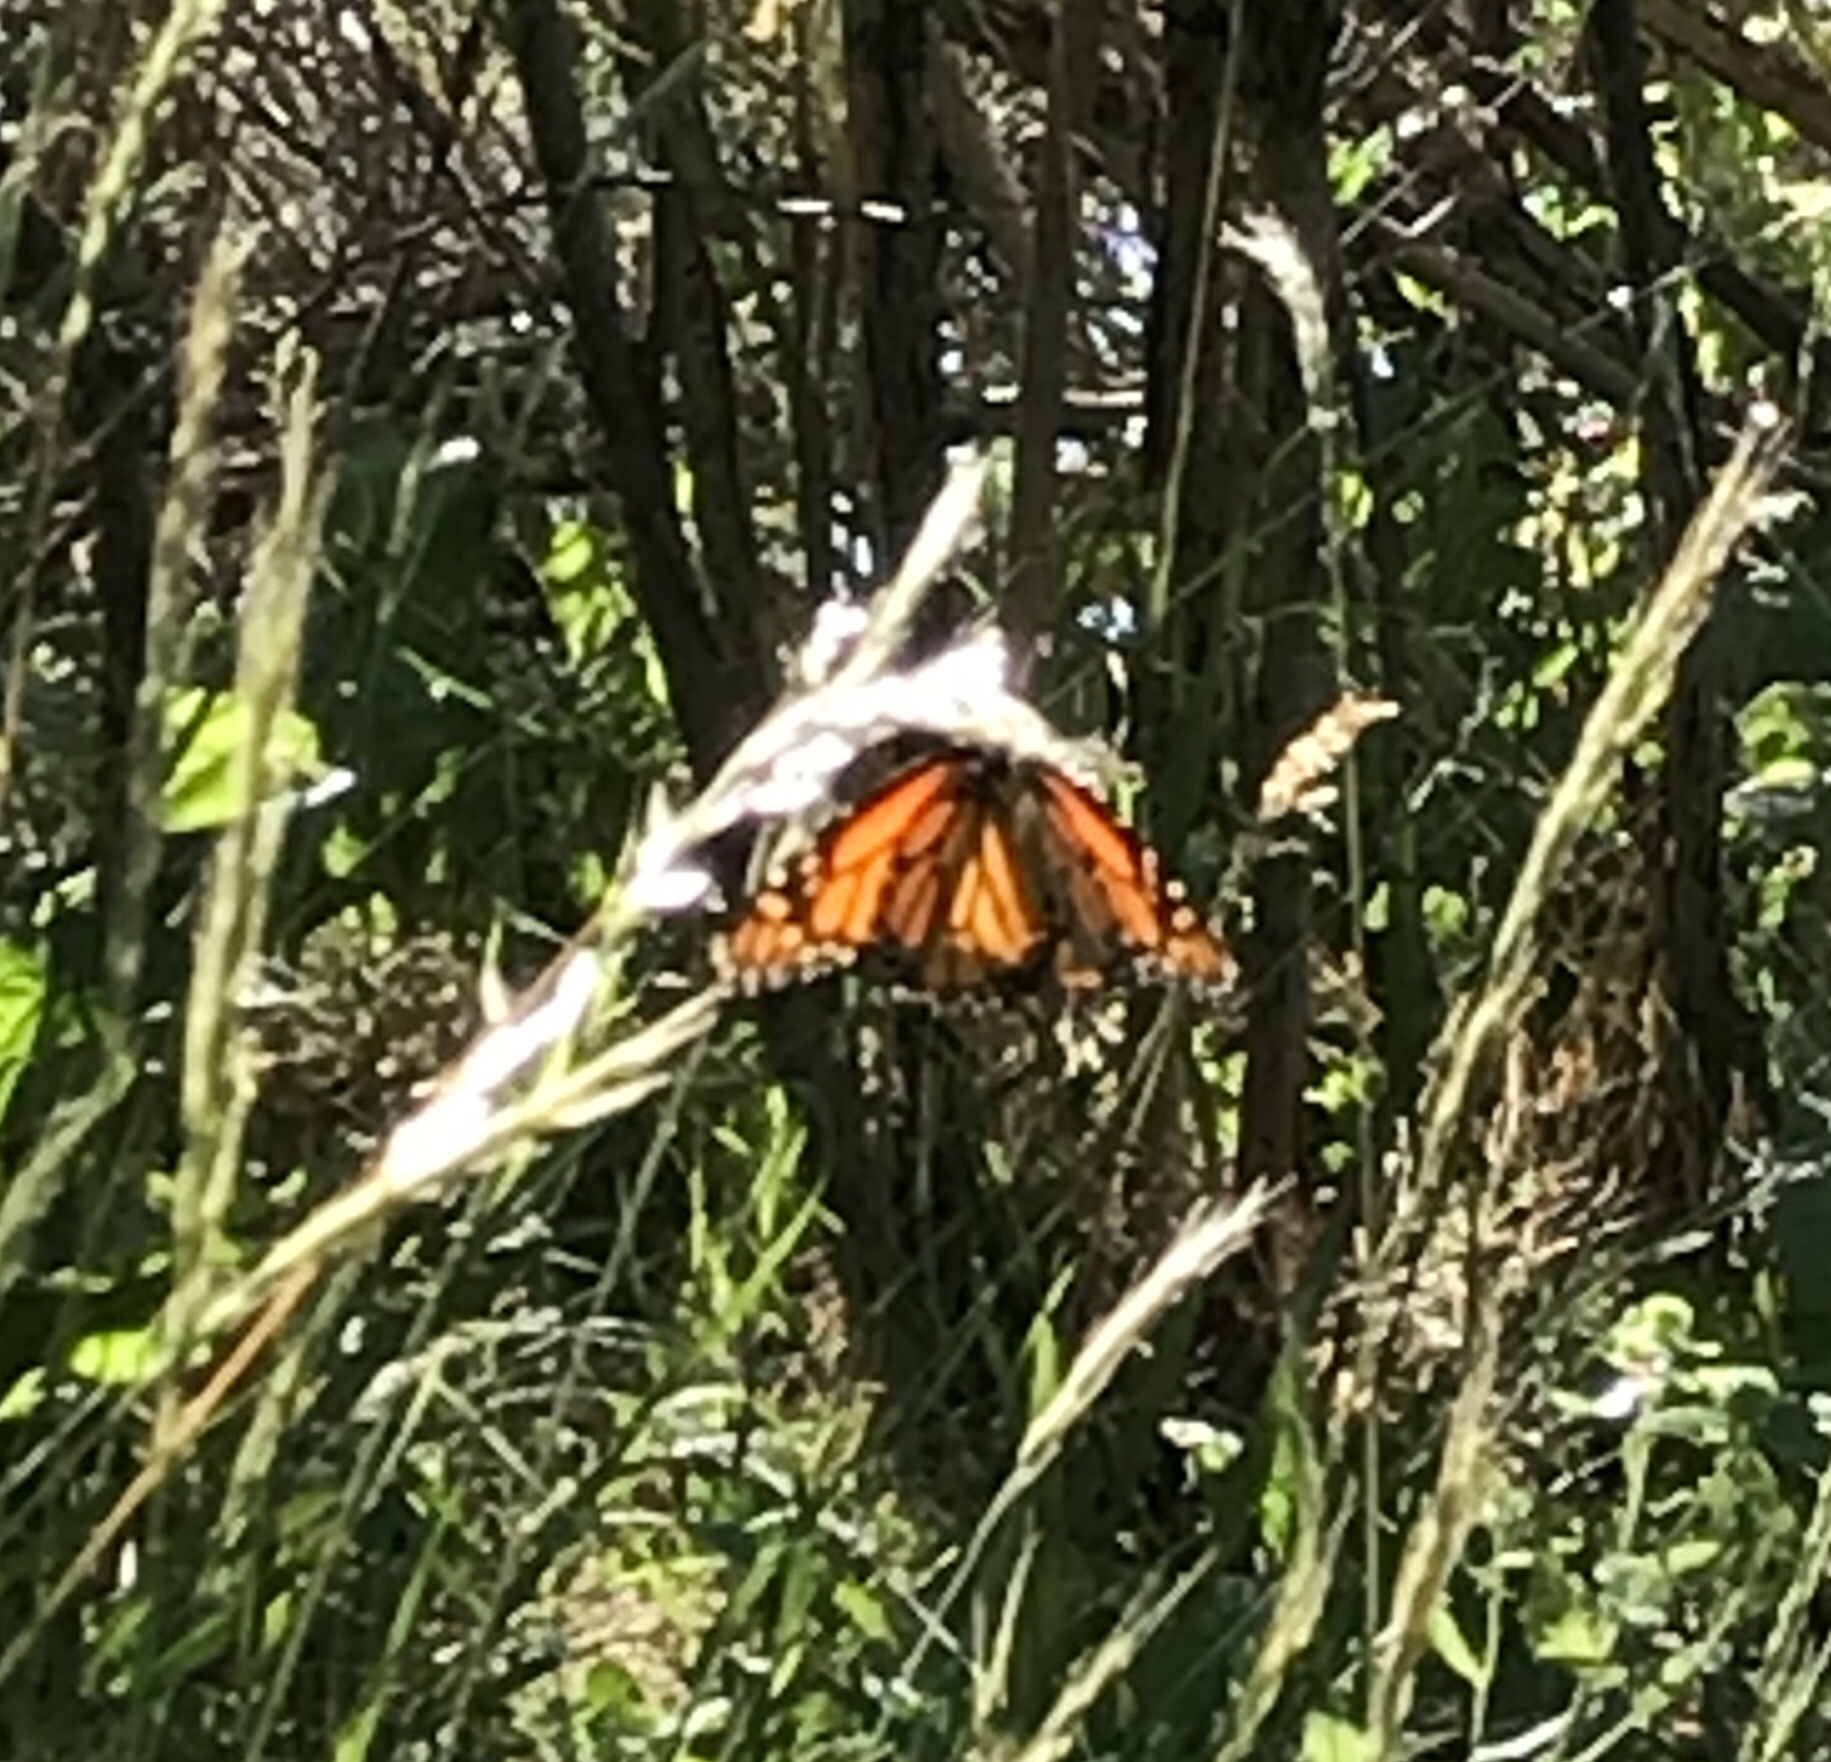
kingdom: Animalia
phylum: Arthropoda
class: Insecta
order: Lepidoptera
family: Nymphalidae
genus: Danaus
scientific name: Danaus plexippus
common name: Monarch
